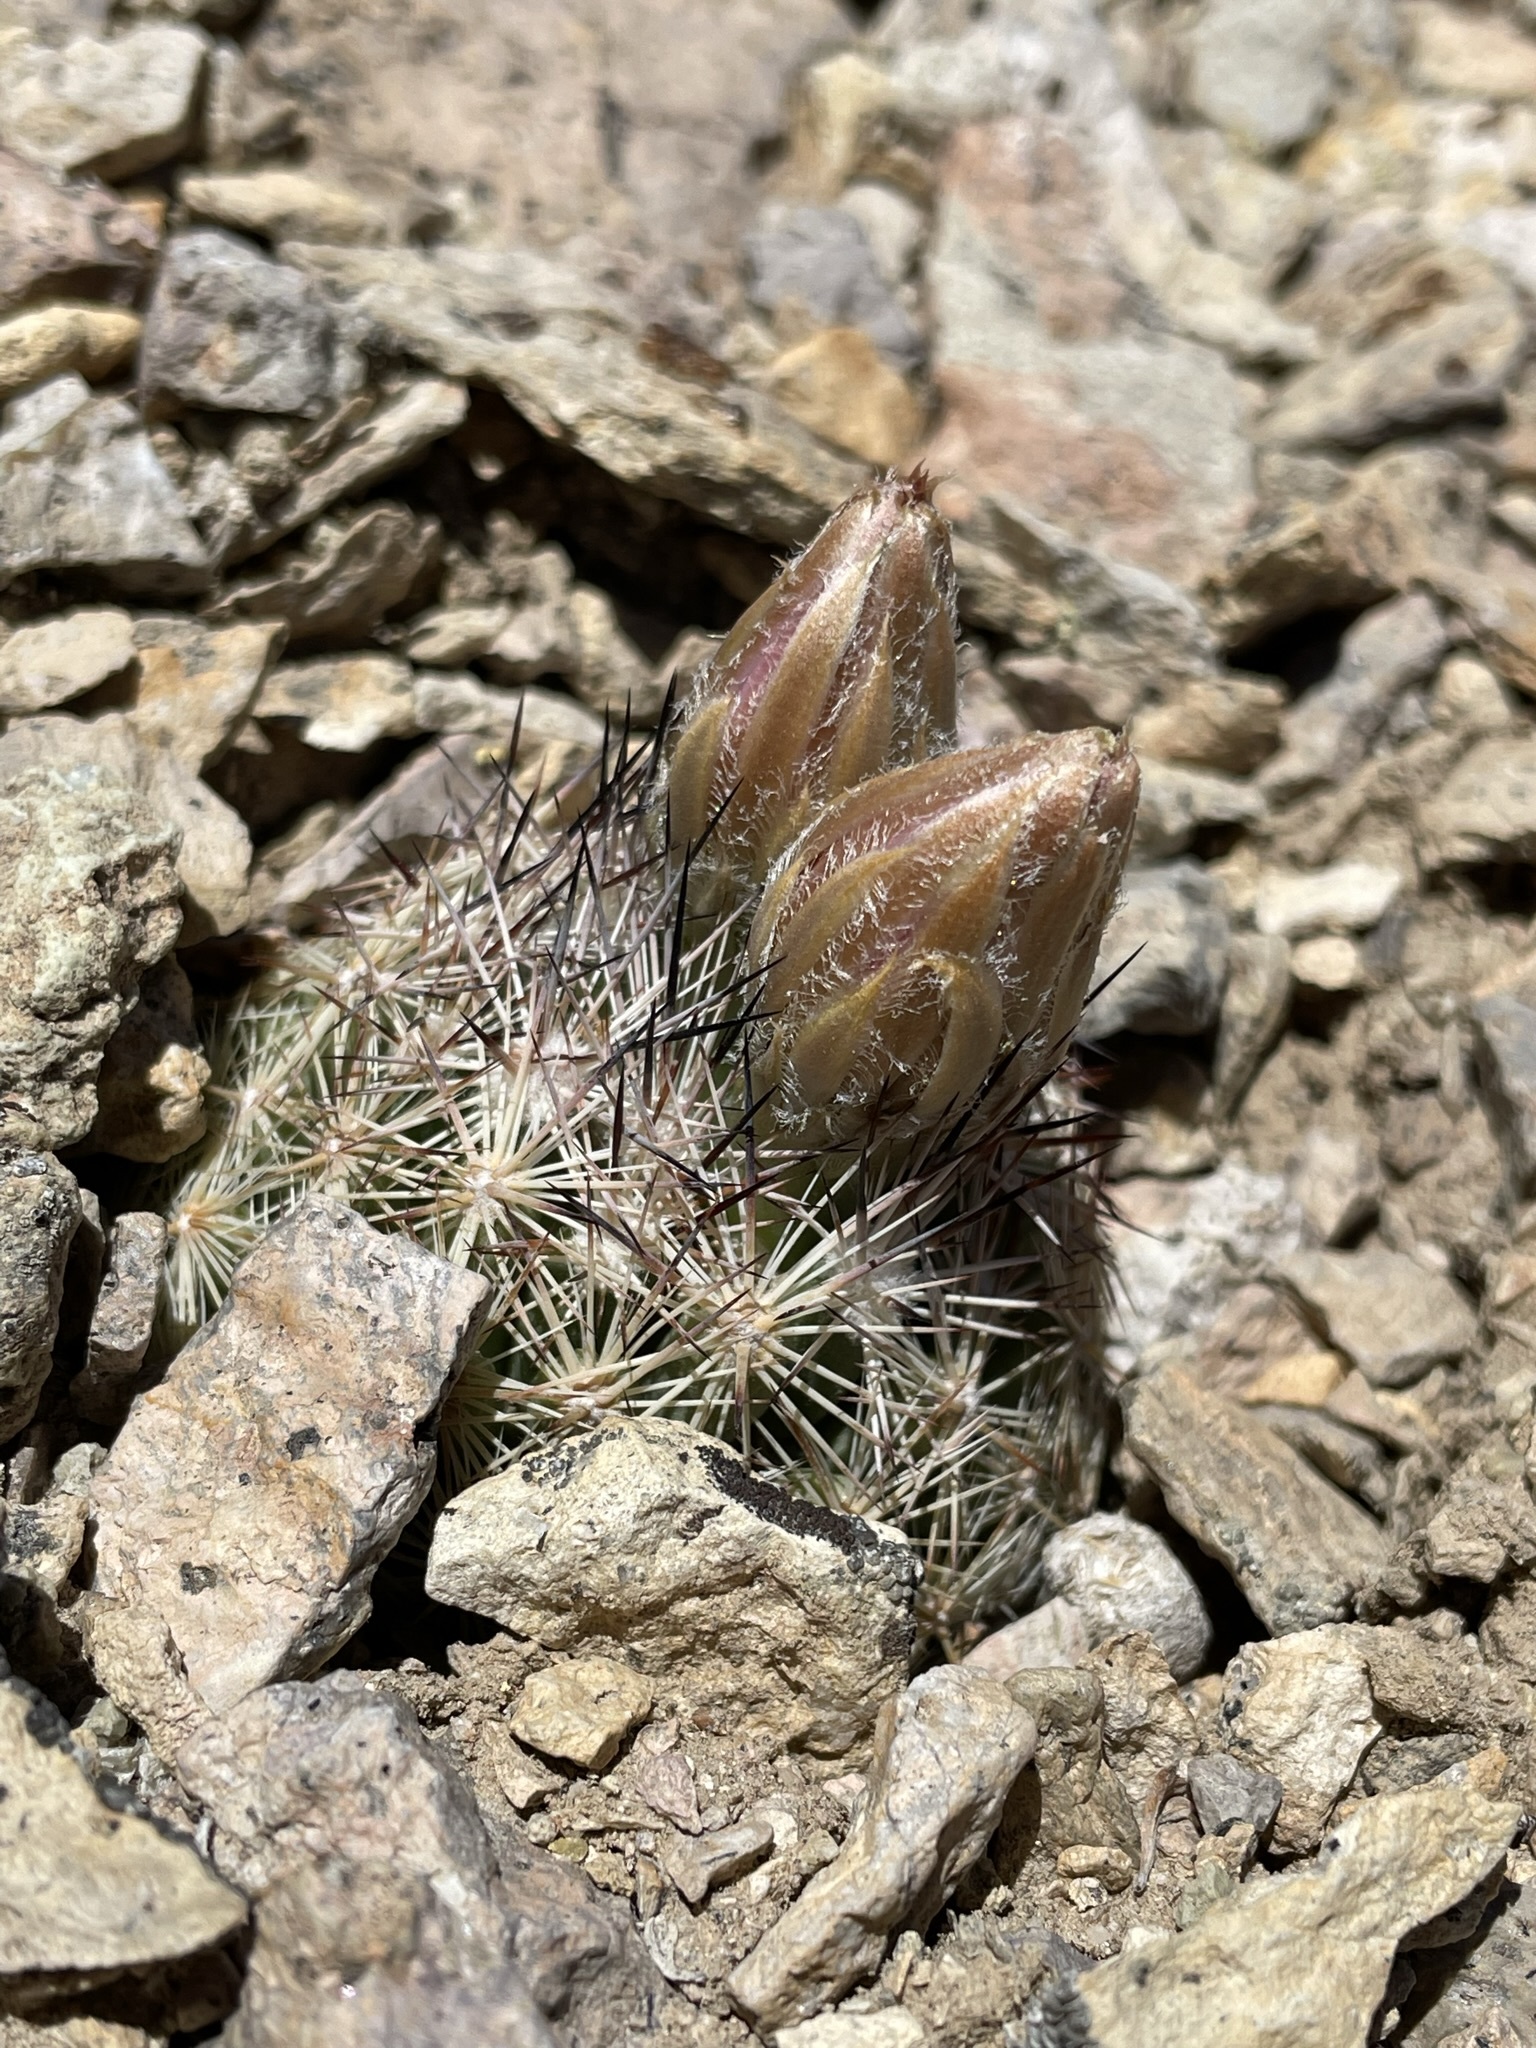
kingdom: Plantae
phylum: Tracheophyta
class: Magnoliopsida
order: Caryophyllales
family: Cactaceae
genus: Pelecyphora
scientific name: Pelecyphora vivipara
